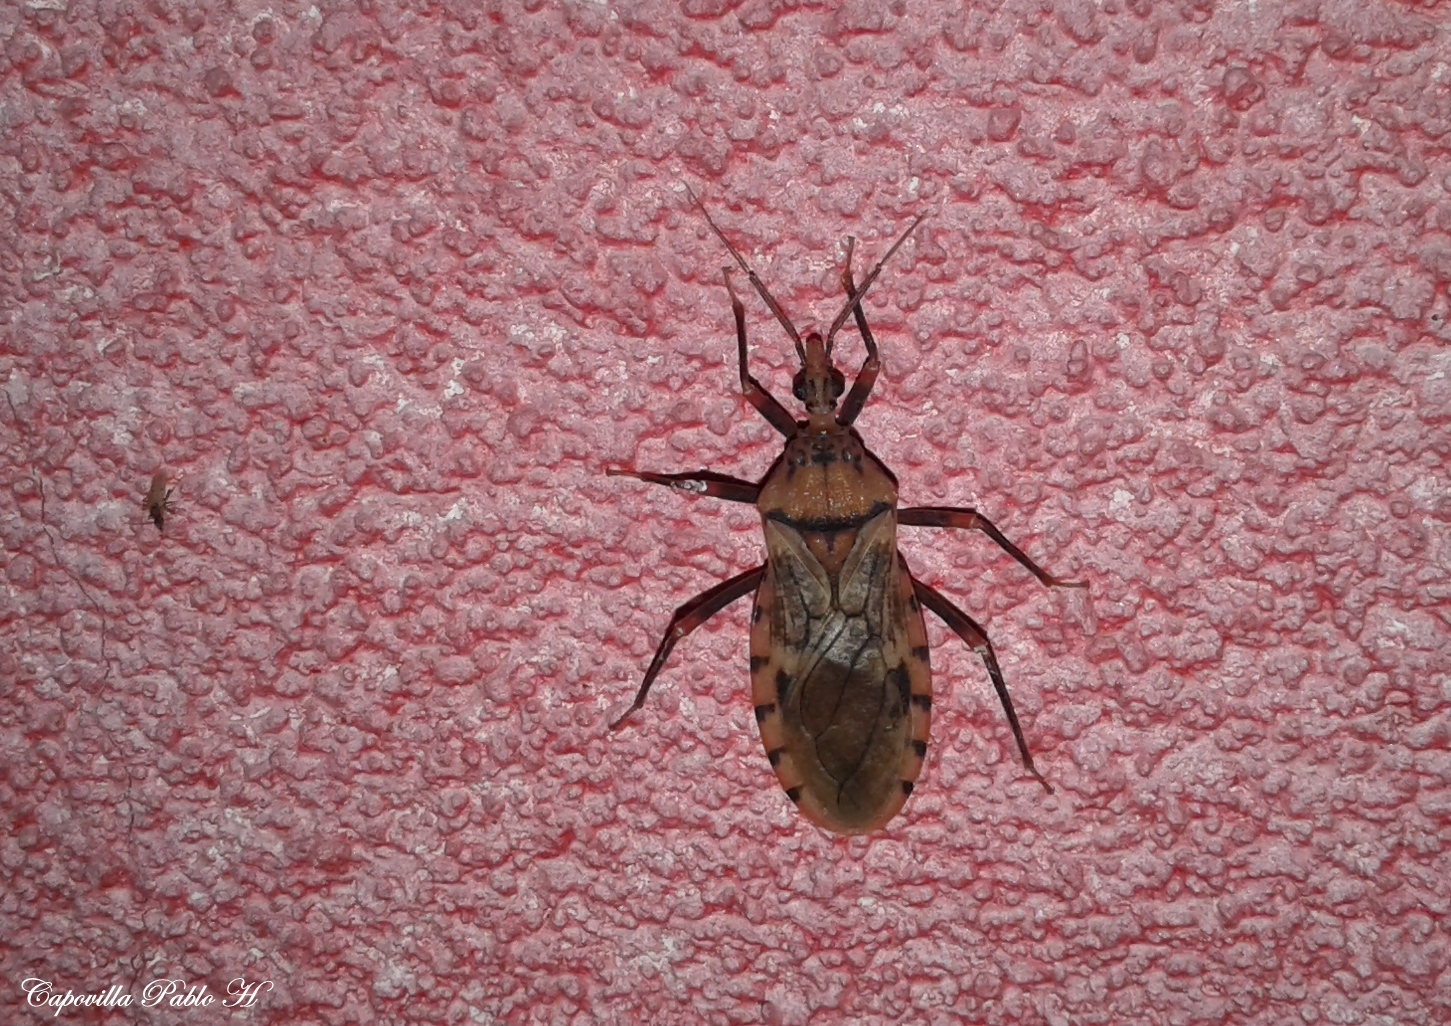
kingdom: Animalia
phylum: Arthropoda
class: Insecta
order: Hemiptera
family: Reduviidae
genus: Panstrongylus
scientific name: Panstrongylus geniculatus
